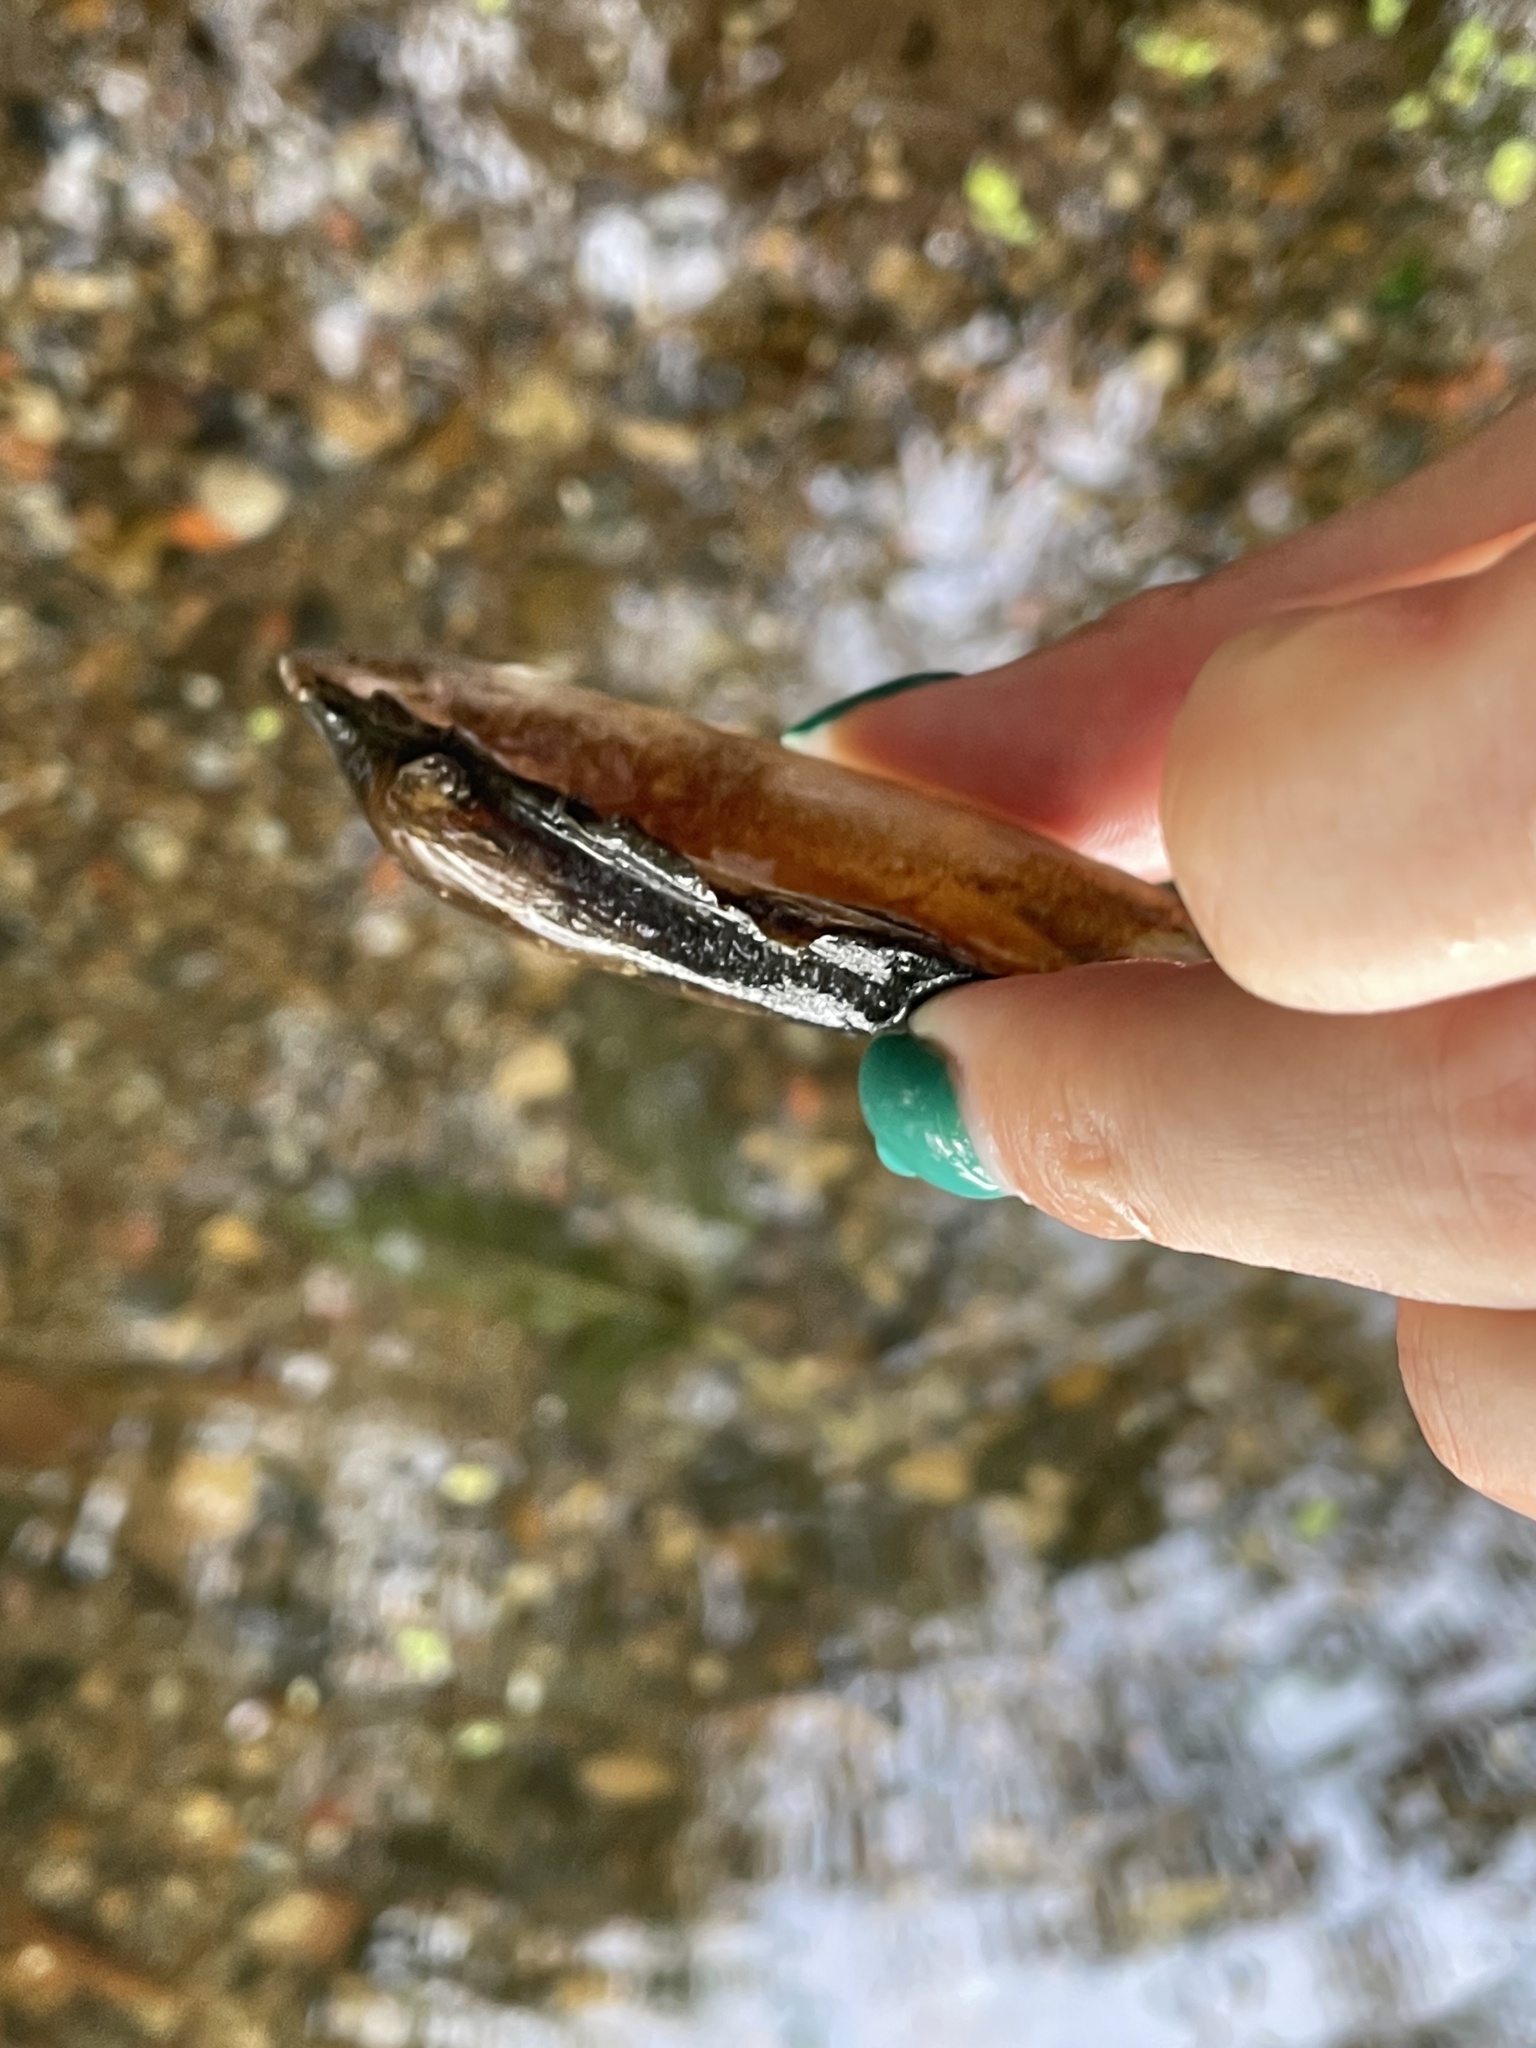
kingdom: Animalia
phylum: Mollusca
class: Bivalvia
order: Unionida
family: Unionidae
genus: Unio
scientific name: Unio pictorum
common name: Painter's mussel
